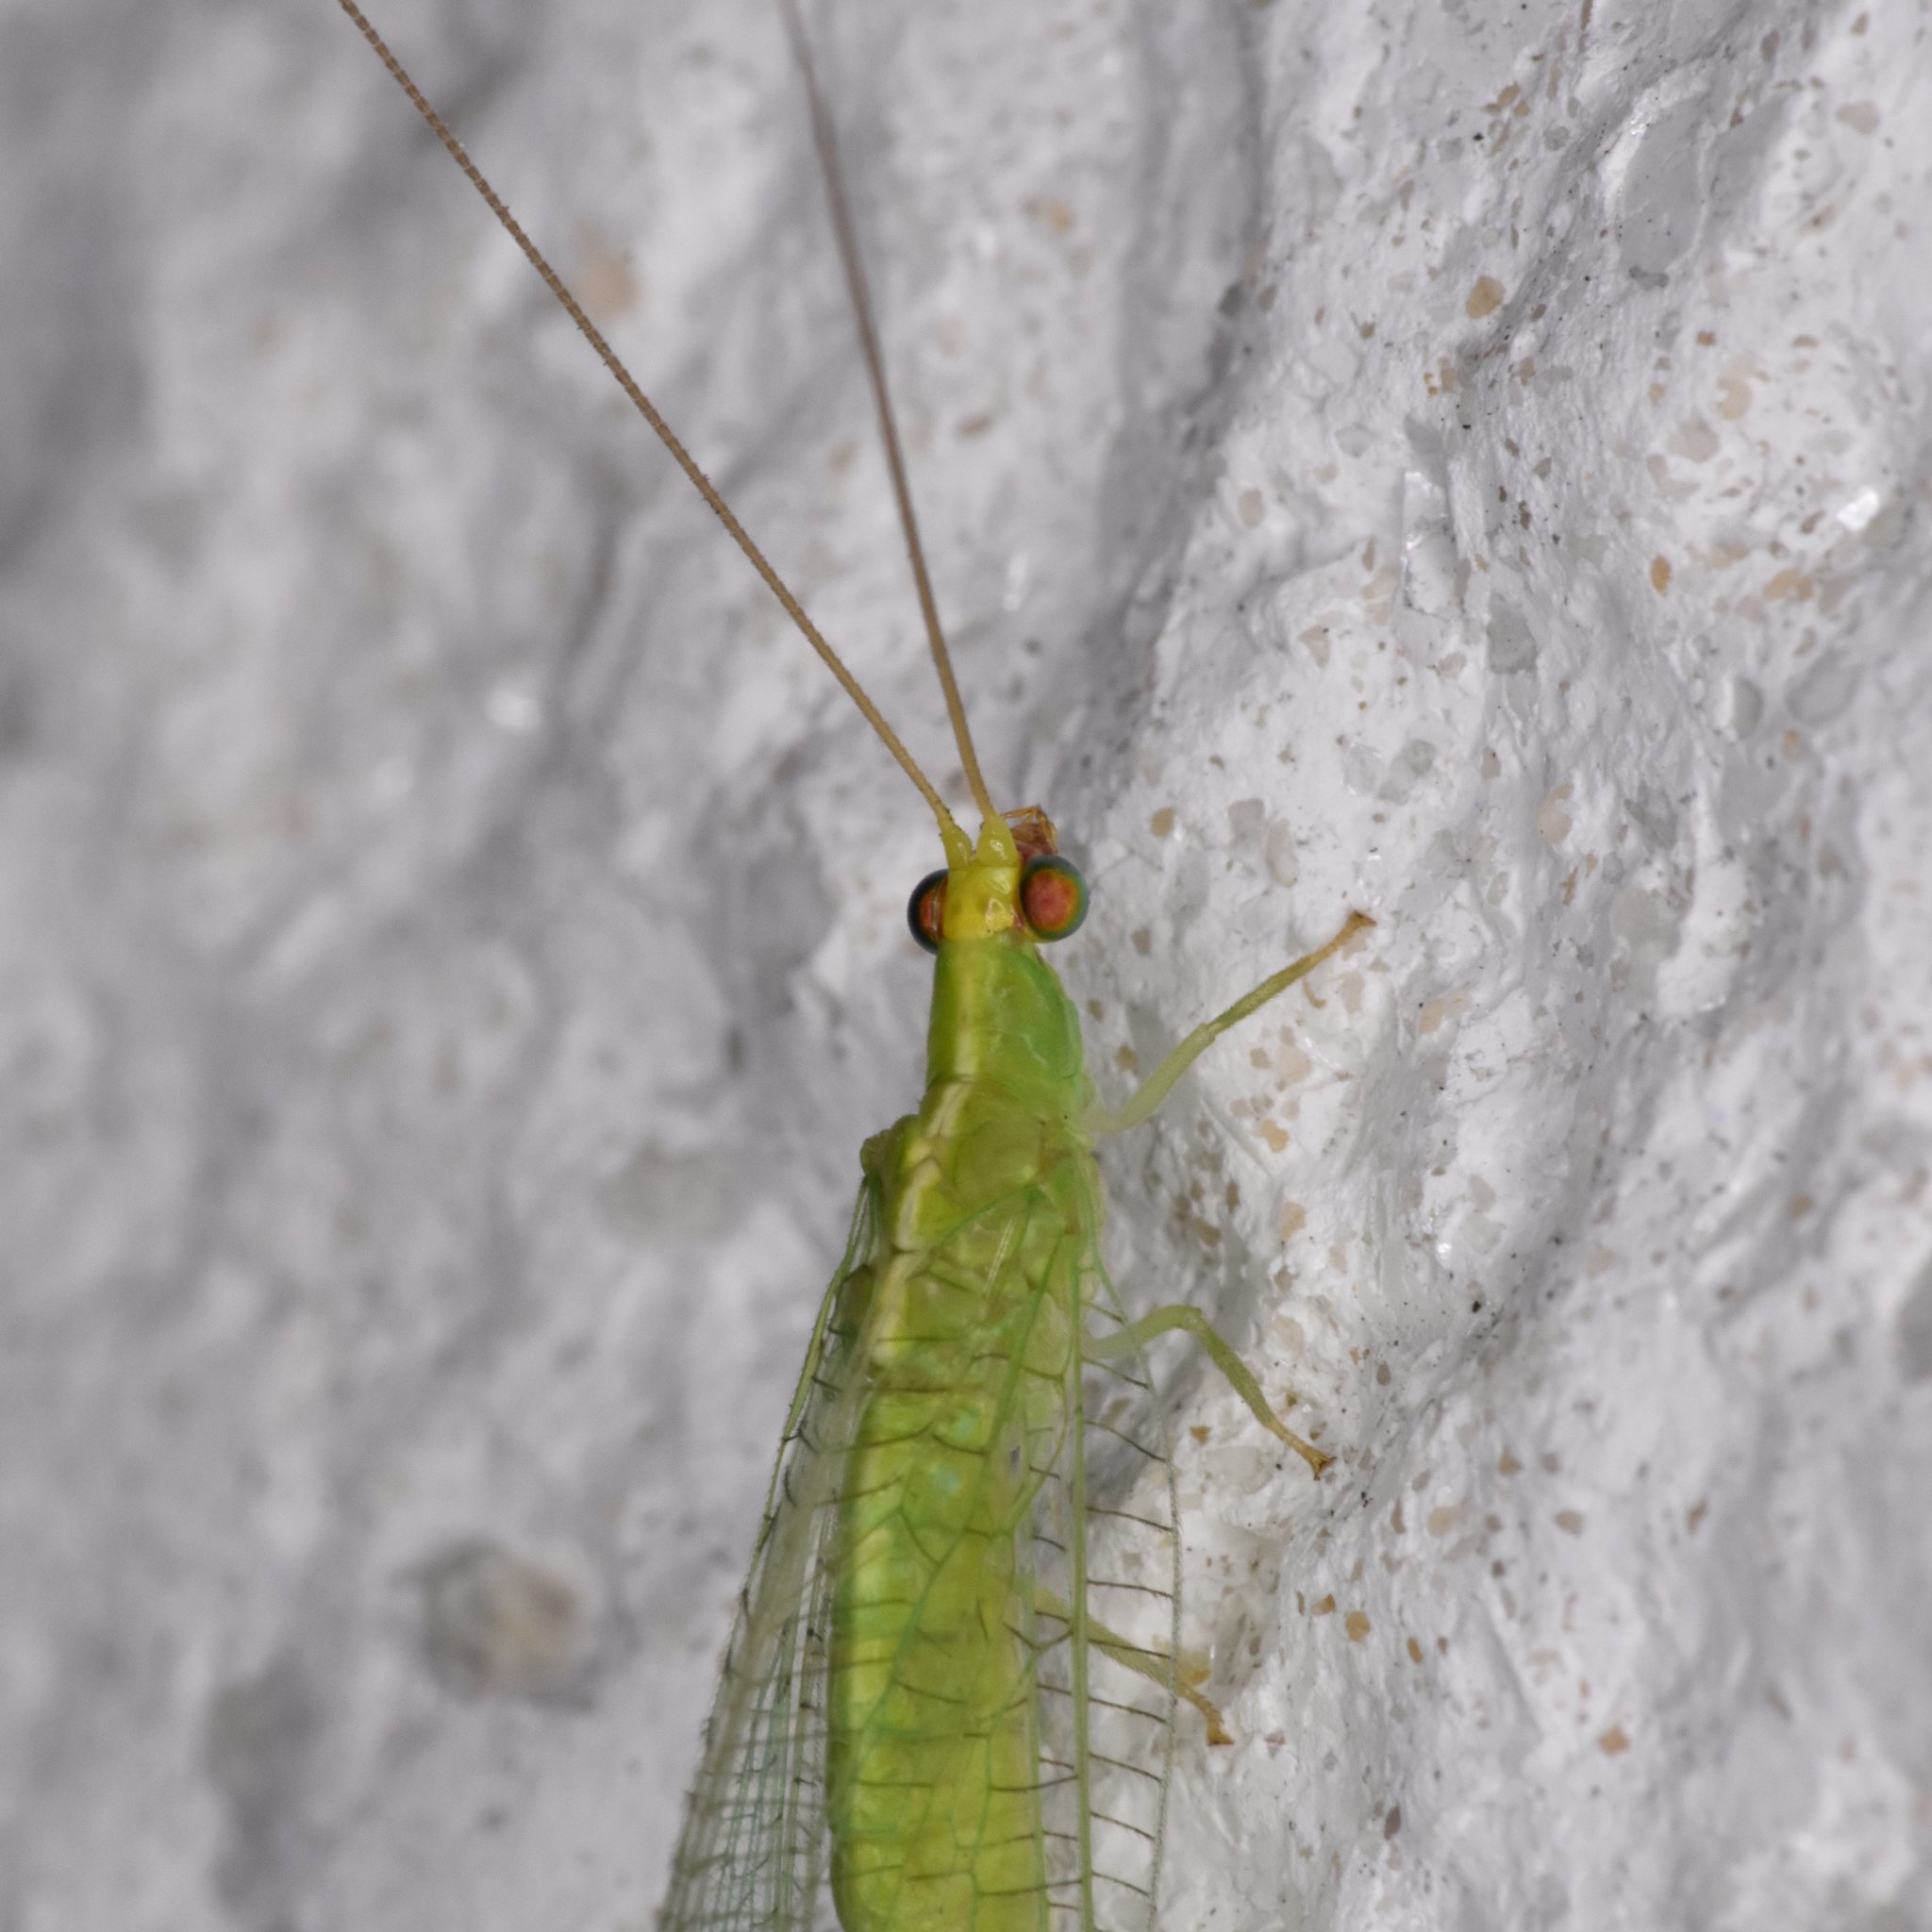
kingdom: Animalia
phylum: Arthropoda
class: Insecta
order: Neuroptera
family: Chrysopidae
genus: Chrysopodes
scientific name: Chrysopodes collaris
